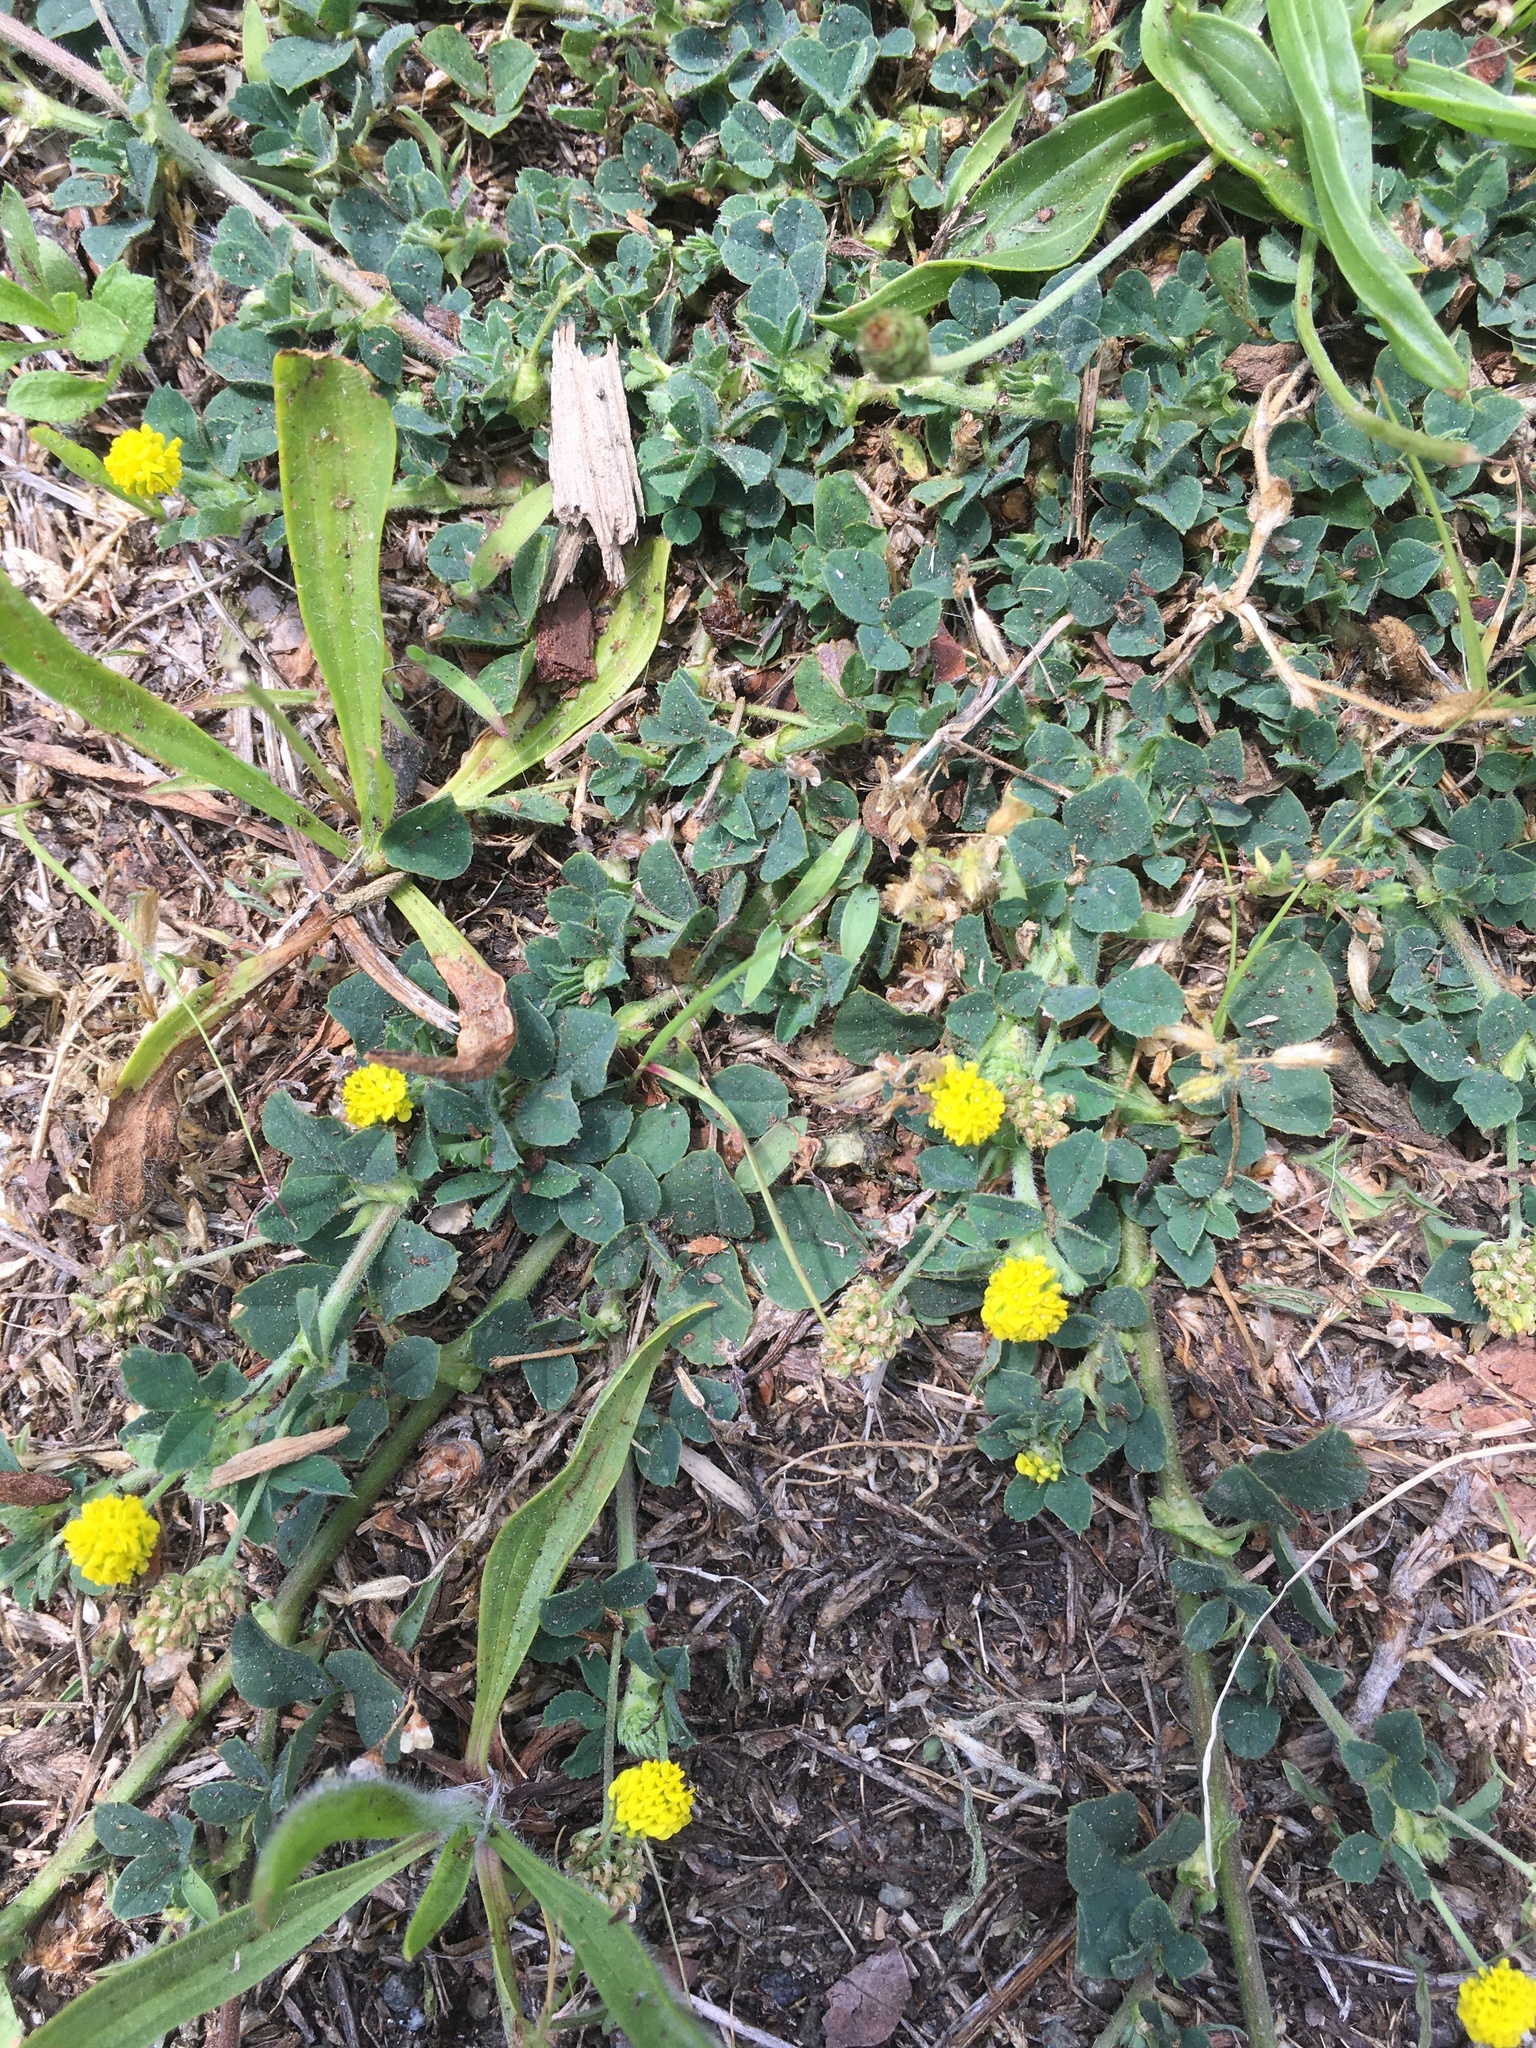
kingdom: Plantae
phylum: Tracheophyta
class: Magnoliopsida
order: Fabales
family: Fabaceae
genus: Medicago
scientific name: Medicago lupulina
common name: Black medick
